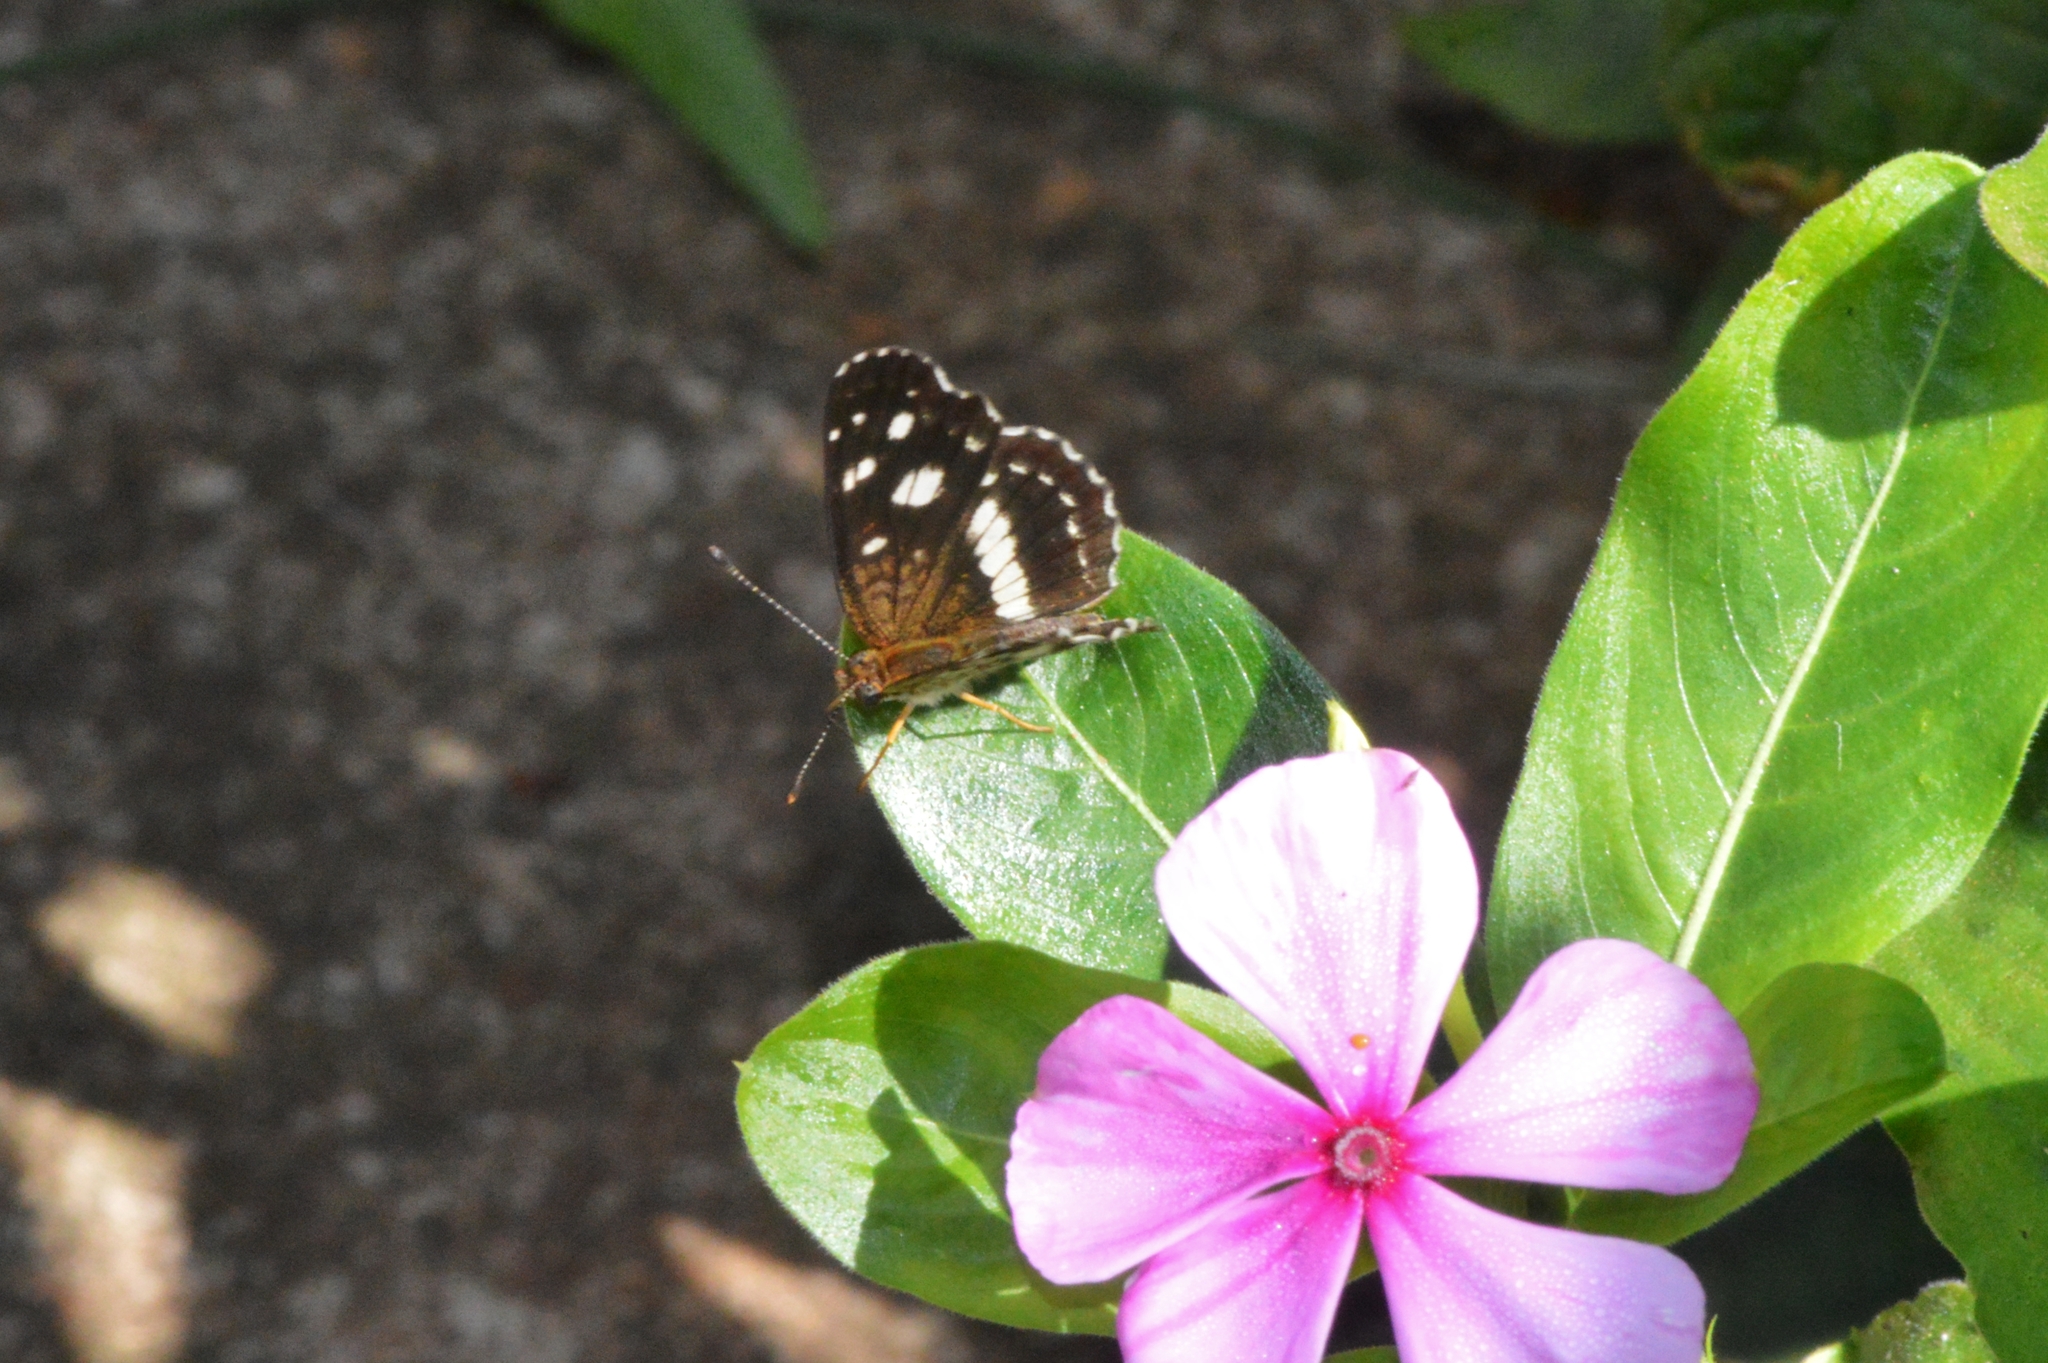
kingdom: Animalia
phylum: Arthropoda
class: Insecta
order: Lepidoptera
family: Nymphalidae
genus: Ortilia
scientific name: Ortilia ithra
